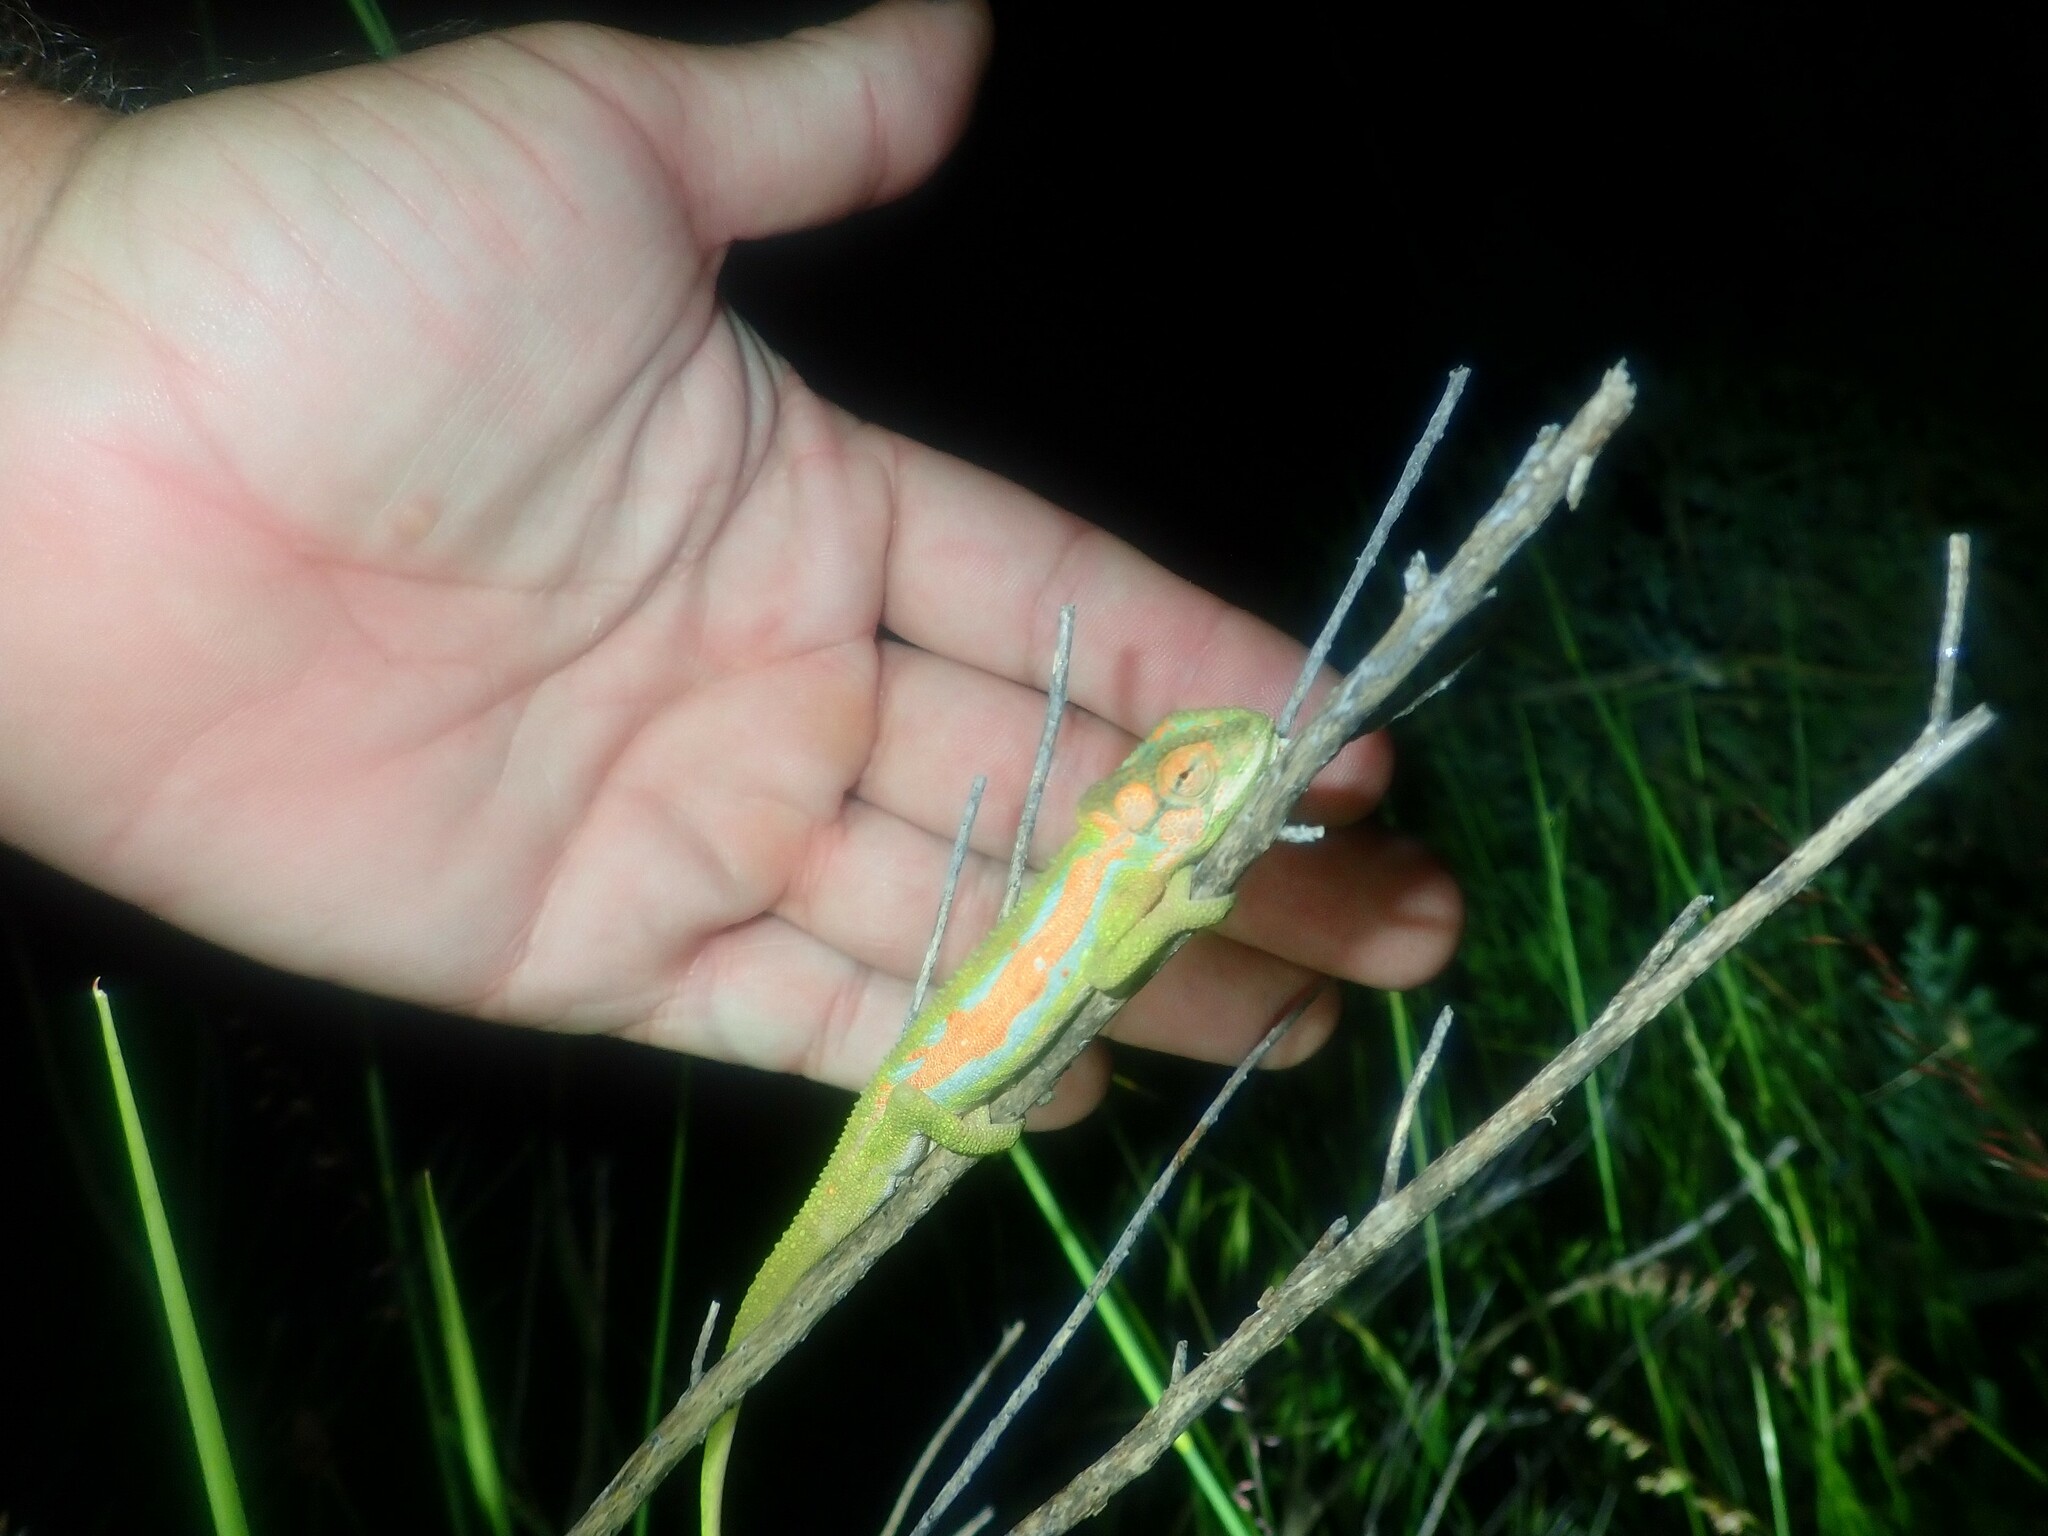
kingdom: Animalia
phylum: Chordata
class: Squamata
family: Chamaeleonidae
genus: Bradypodion
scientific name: Bradypodion pumilum
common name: Cape dwarf chameleon
